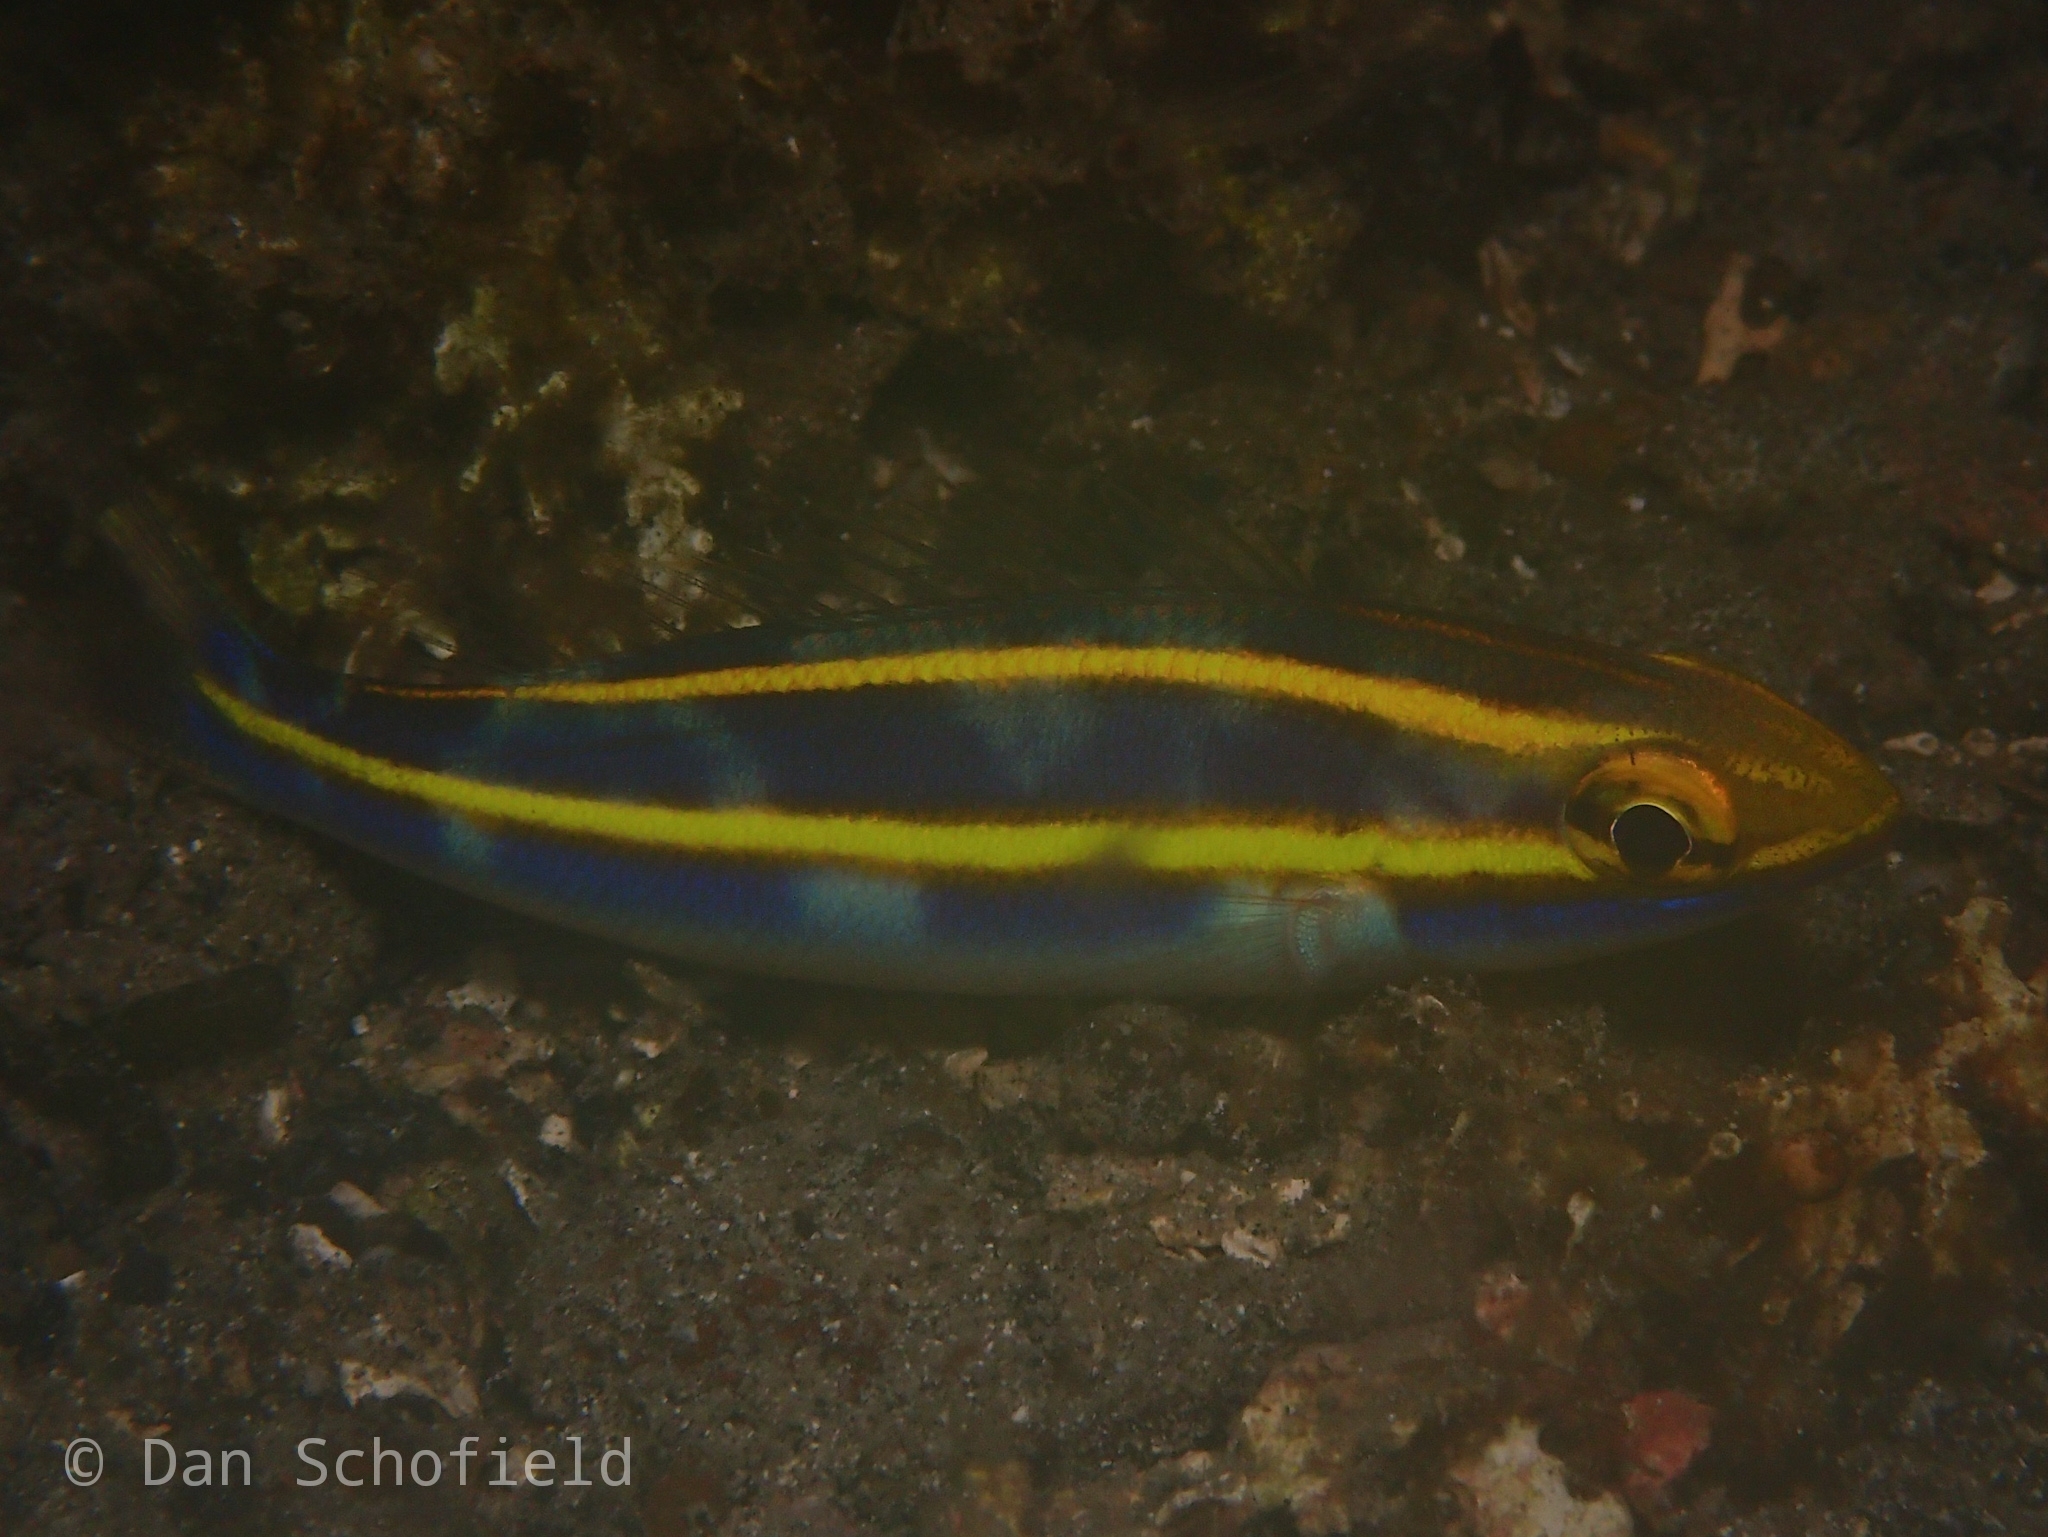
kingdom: Animalia
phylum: Chordata
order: Perciformes
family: Nemipteridae
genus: Pentapodus
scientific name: Pentapodus emeryii
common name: Double whiptail
